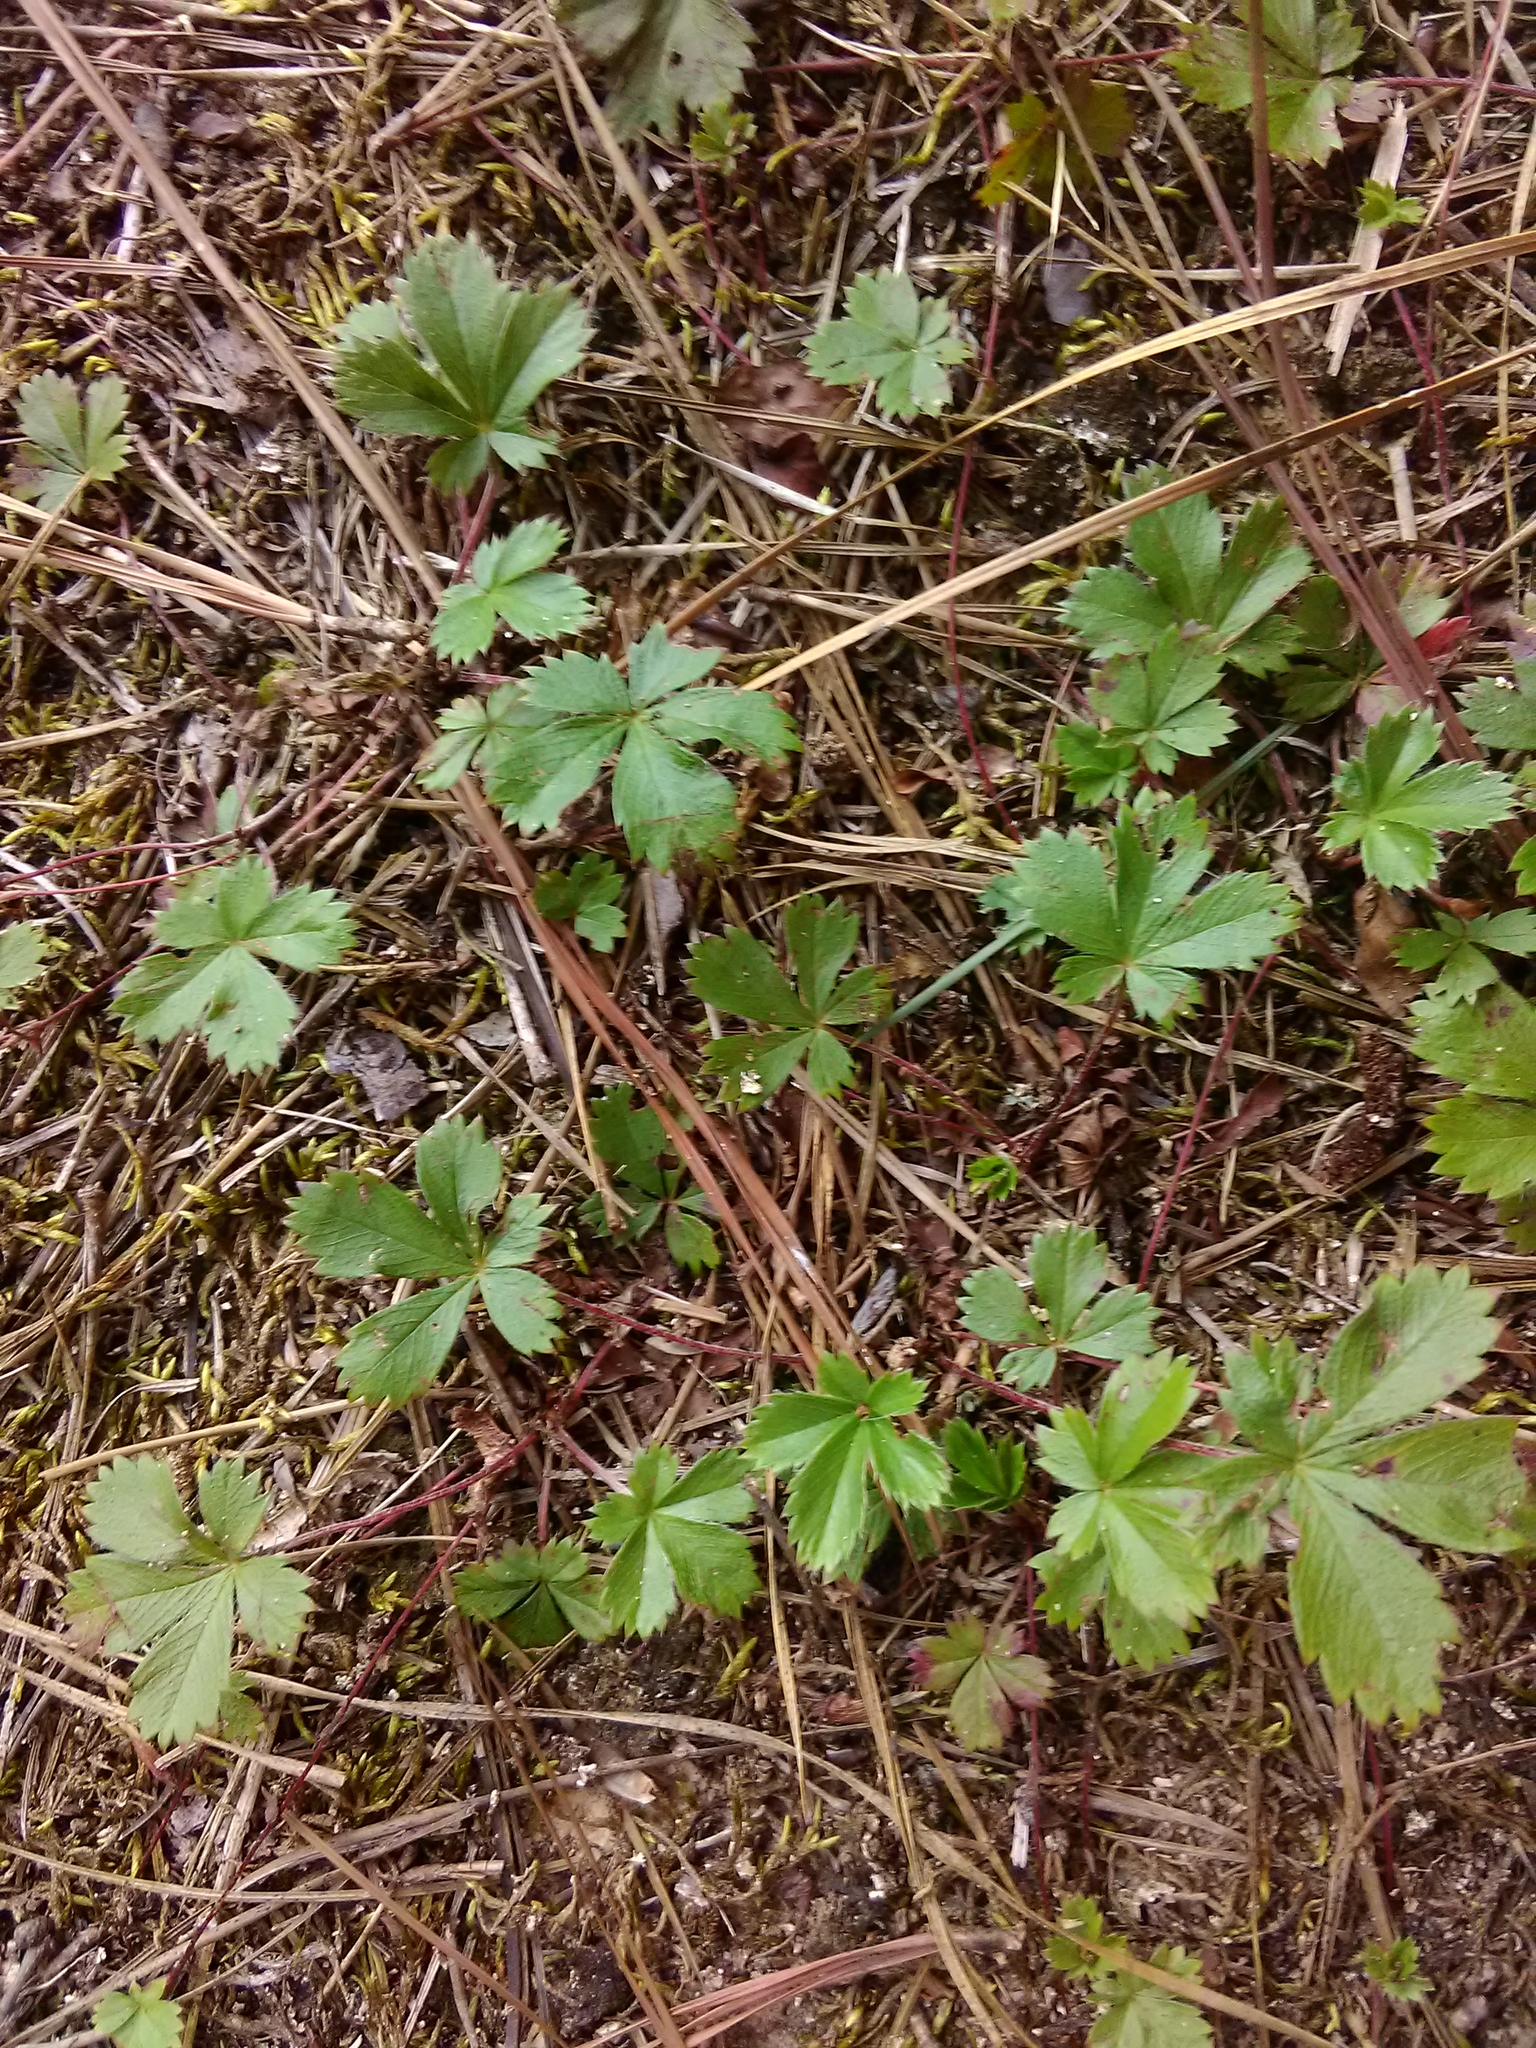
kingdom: Plantae
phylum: Tracheophyta
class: Magnoliopsida
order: Rosales
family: Rosaceae
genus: Potentilla
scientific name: Potentilla canadensis
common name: Canada cinquefoil
